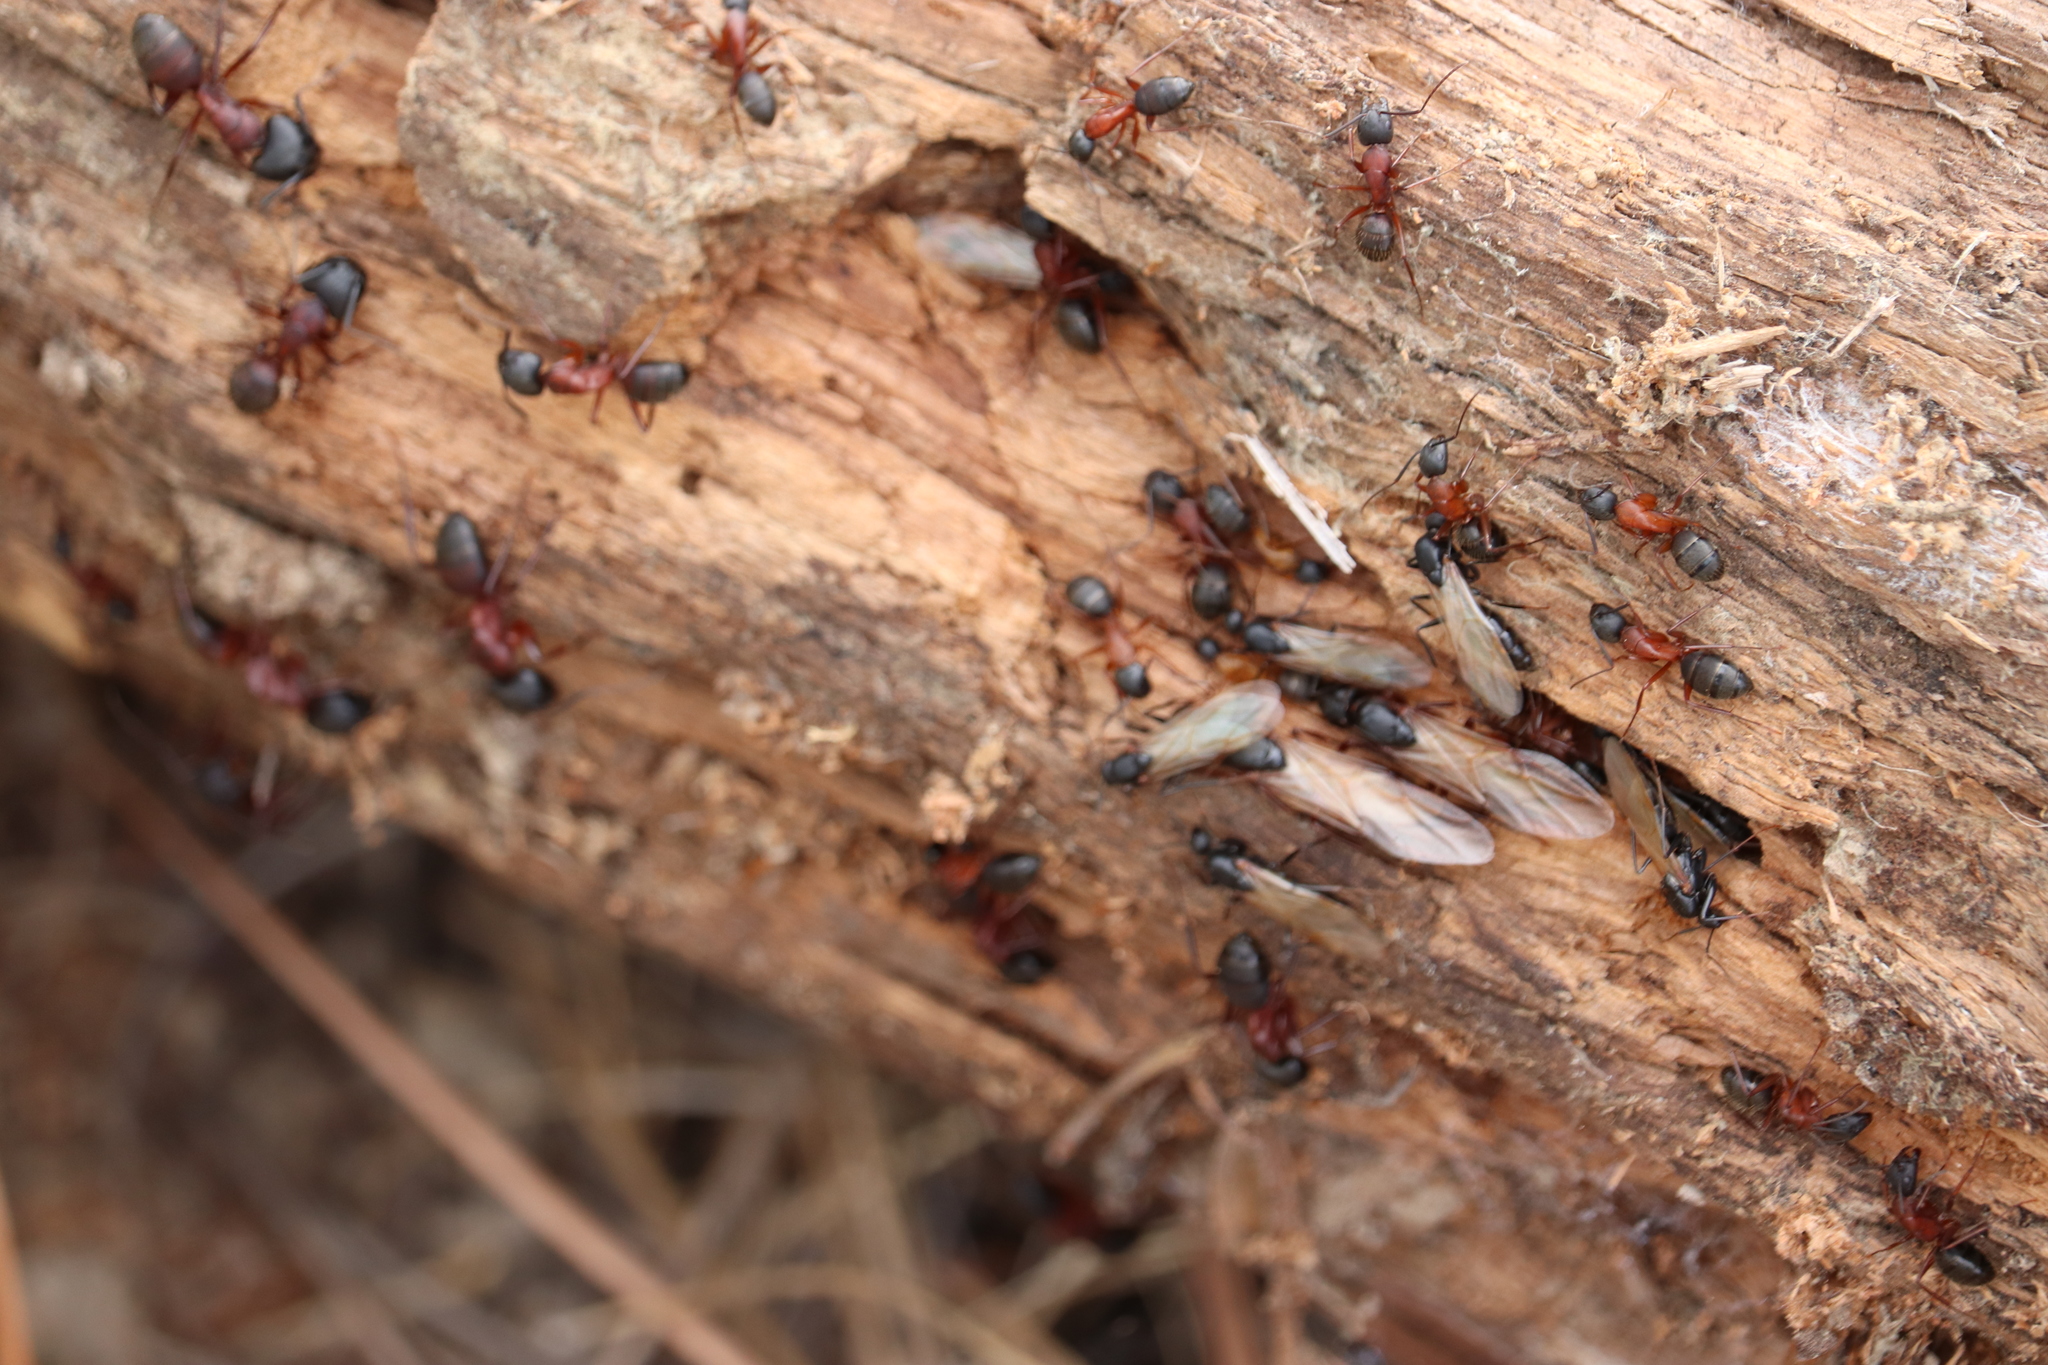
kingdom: Animalia
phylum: Arthropoda
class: Insecta
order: Hymenoptera
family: Formicidae
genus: Camponotus
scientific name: Camponotus vicinus
